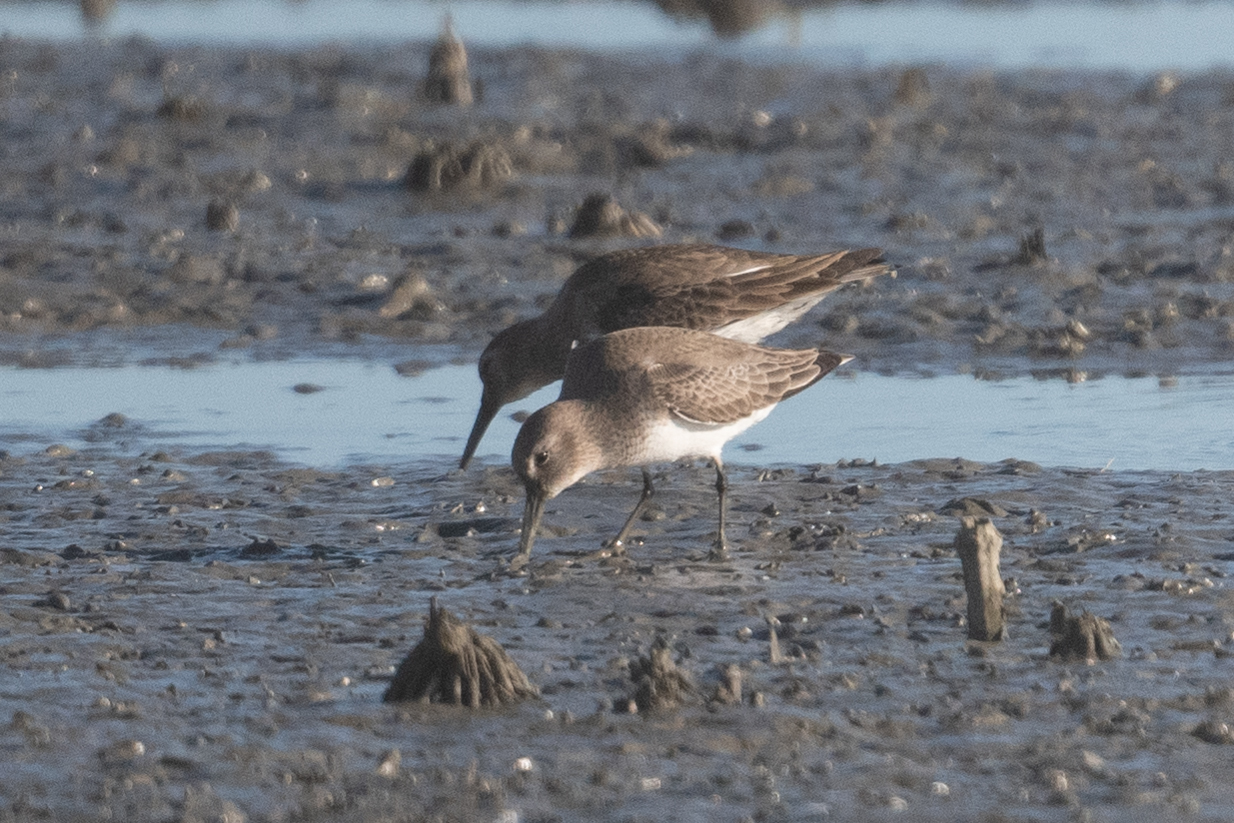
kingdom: Animalia
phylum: Chordata
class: Aves
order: Charadriiformes
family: Scolopacidae
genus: Calidris
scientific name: Calidris alpina
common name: Dunlin
